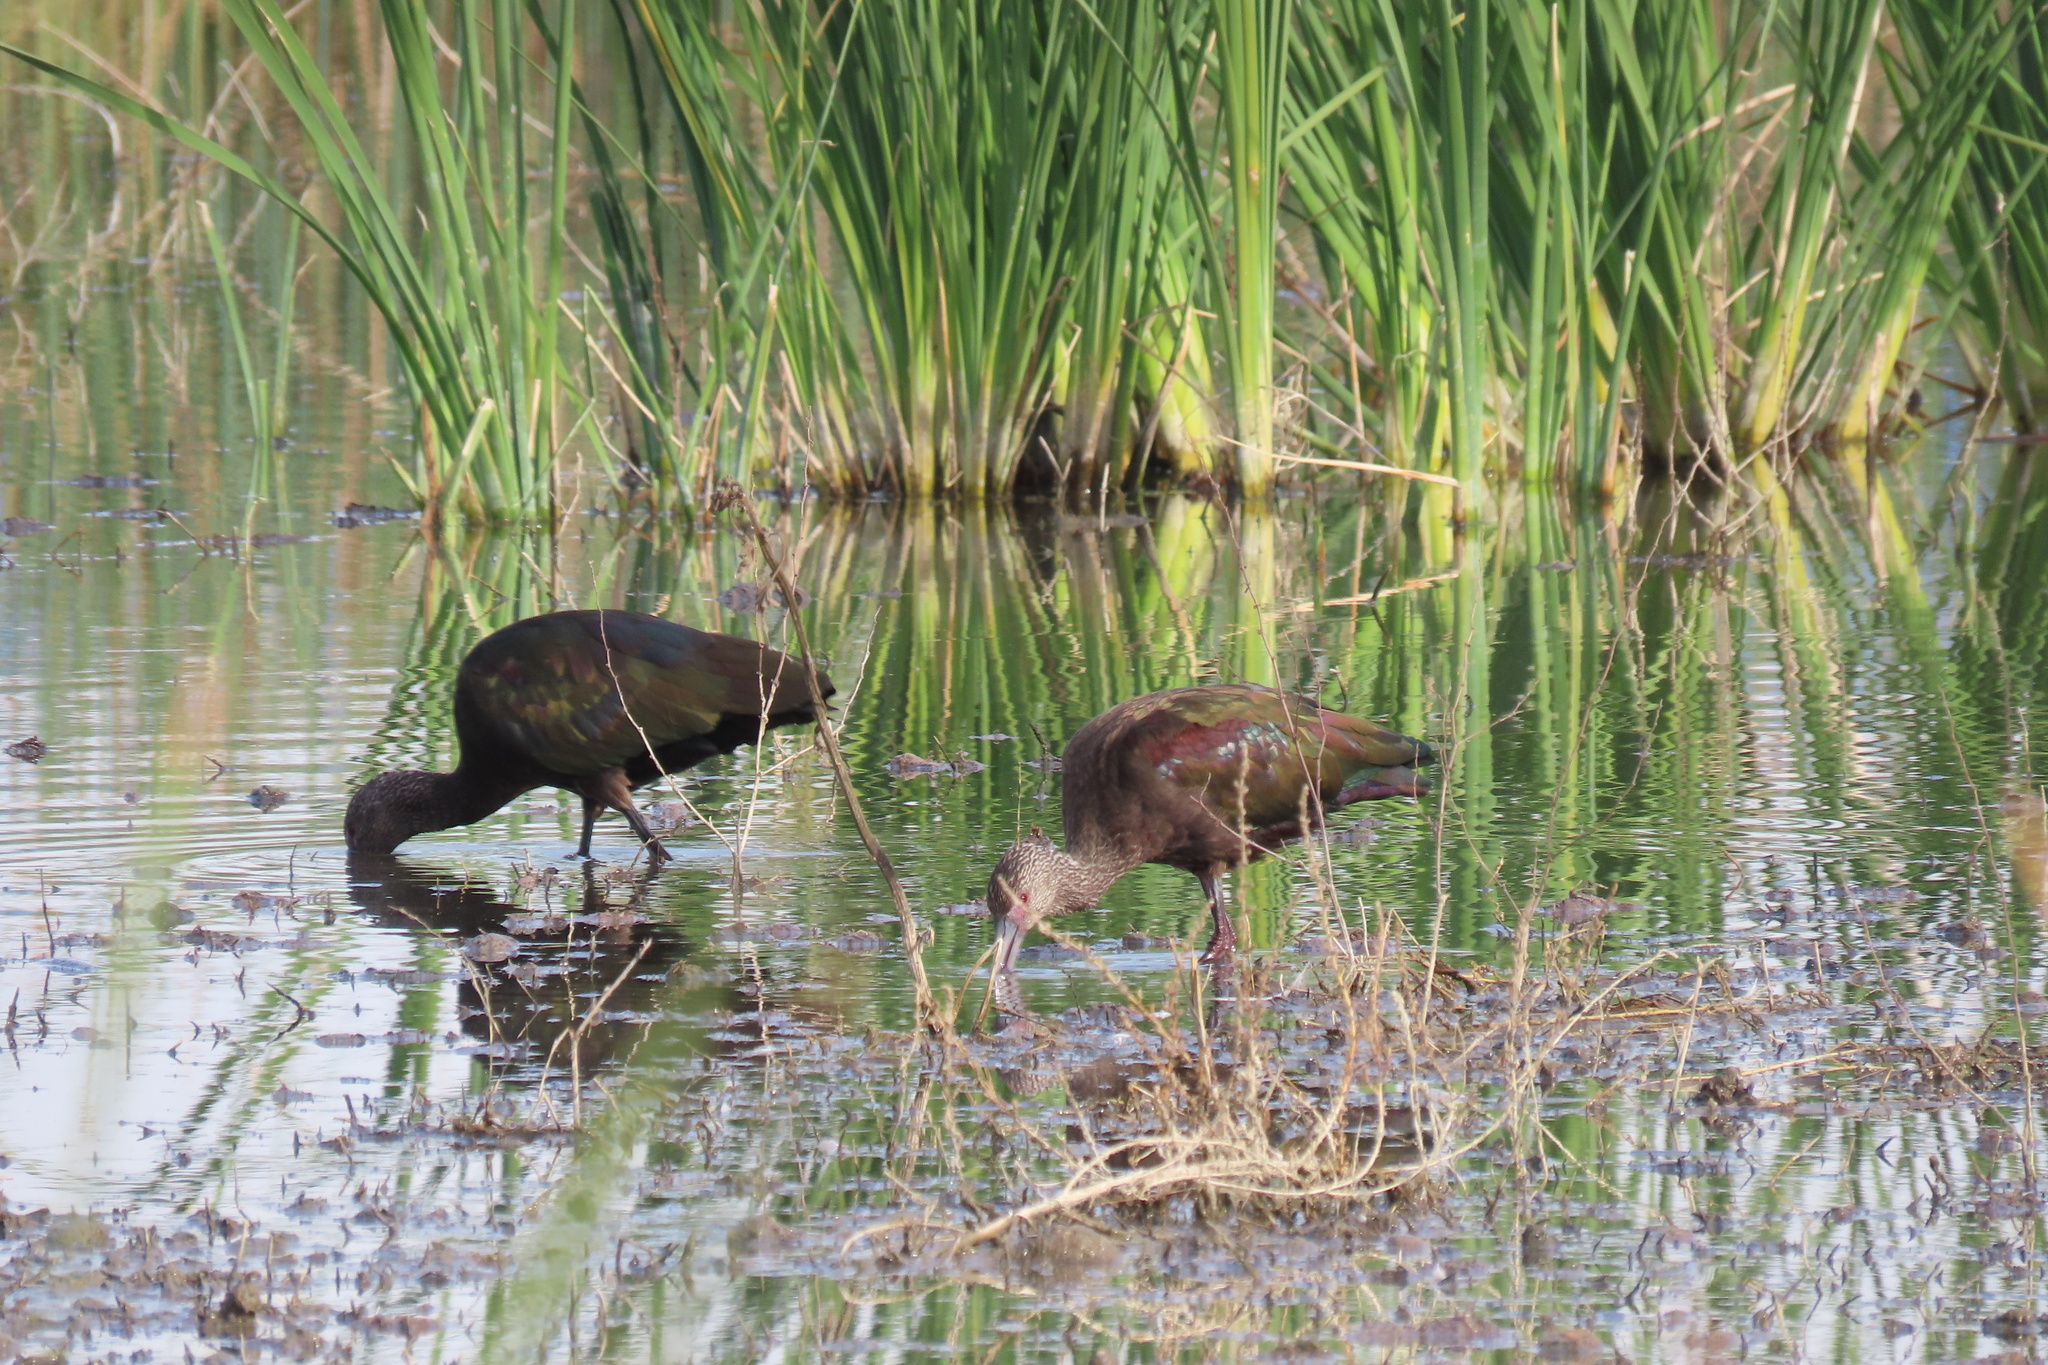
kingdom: Animalia
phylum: Chordata
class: Aves
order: Pelecaniformes
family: Threskiornithidae
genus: Plegadis
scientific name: Plegadis chihi
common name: White-faced ibis
